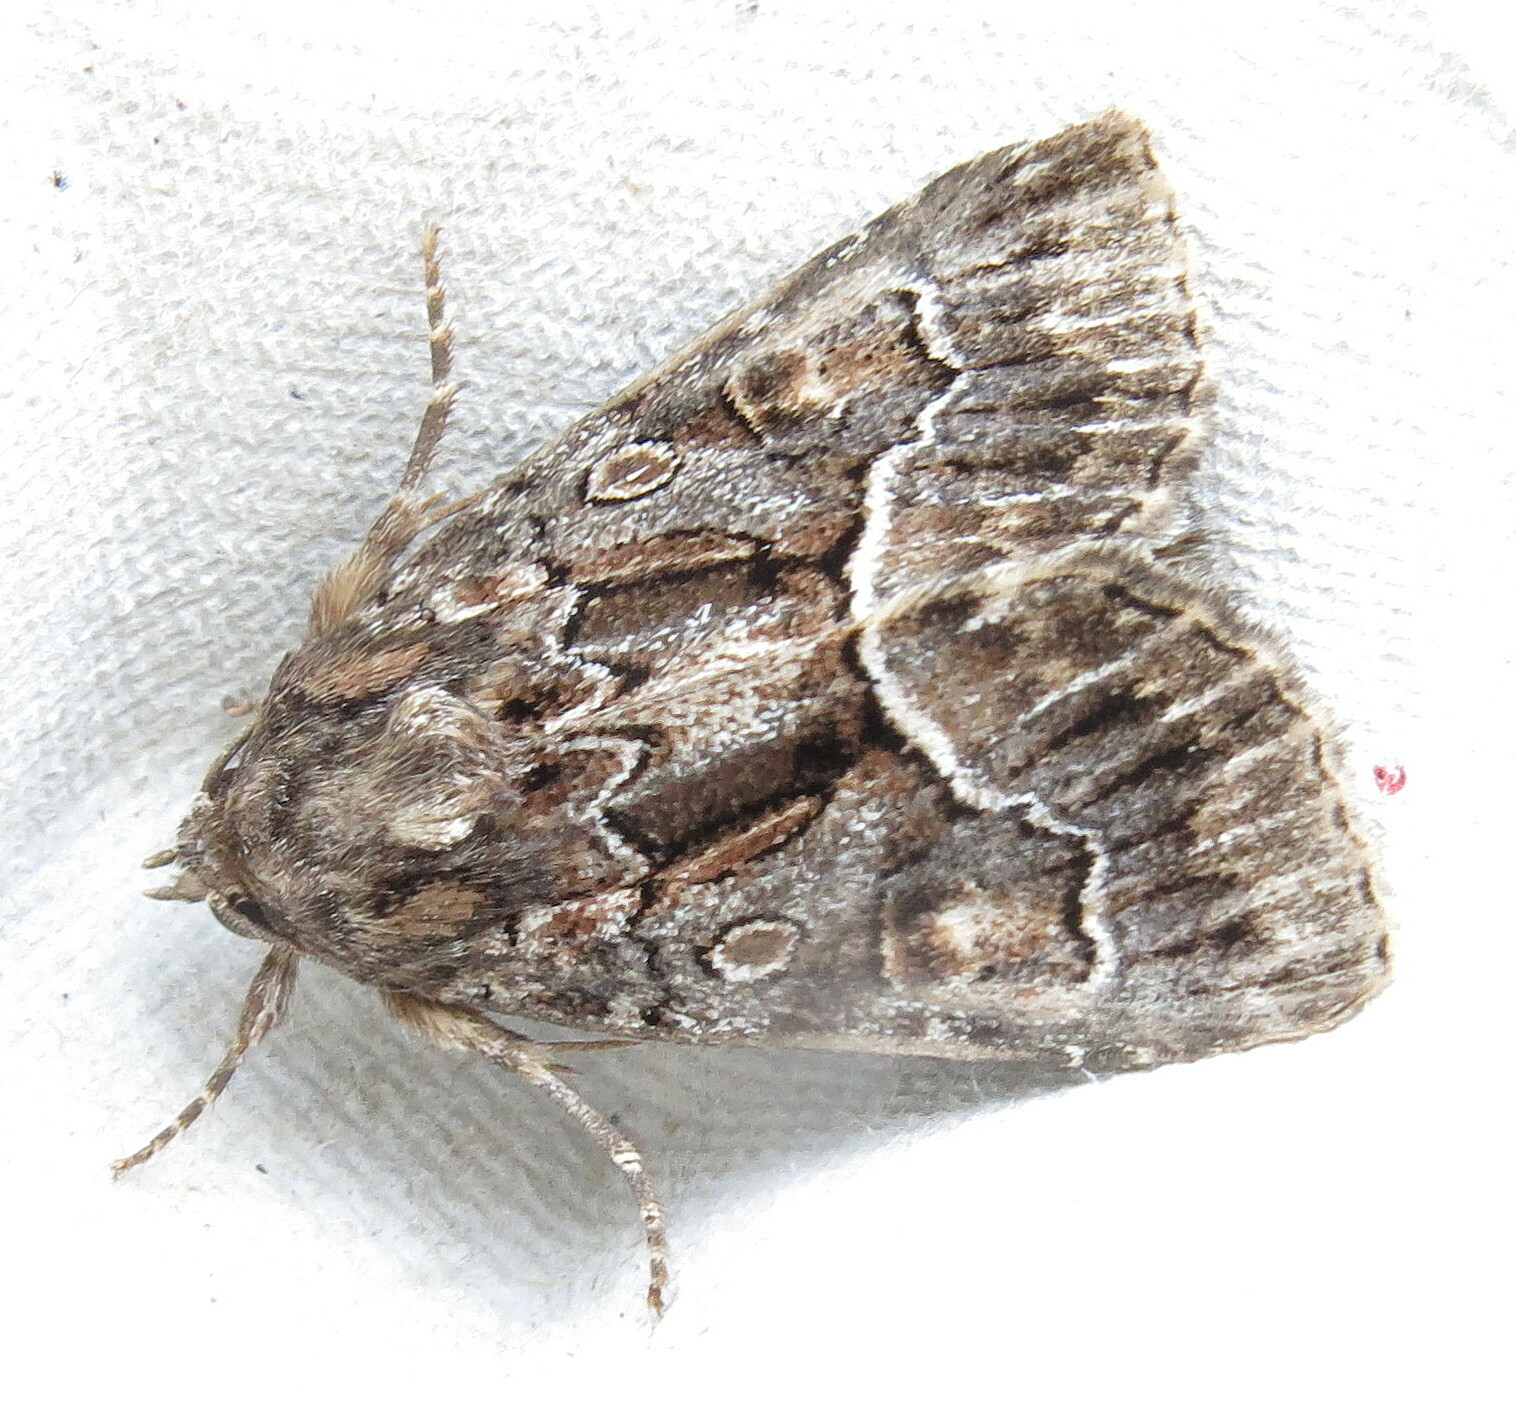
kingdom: Animalia
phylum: Arthropoda
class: Insecta
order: Lepidoptera
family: Noctuidae
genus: Thalpophila
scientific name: Thalpophila matura
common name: Straw underwing
